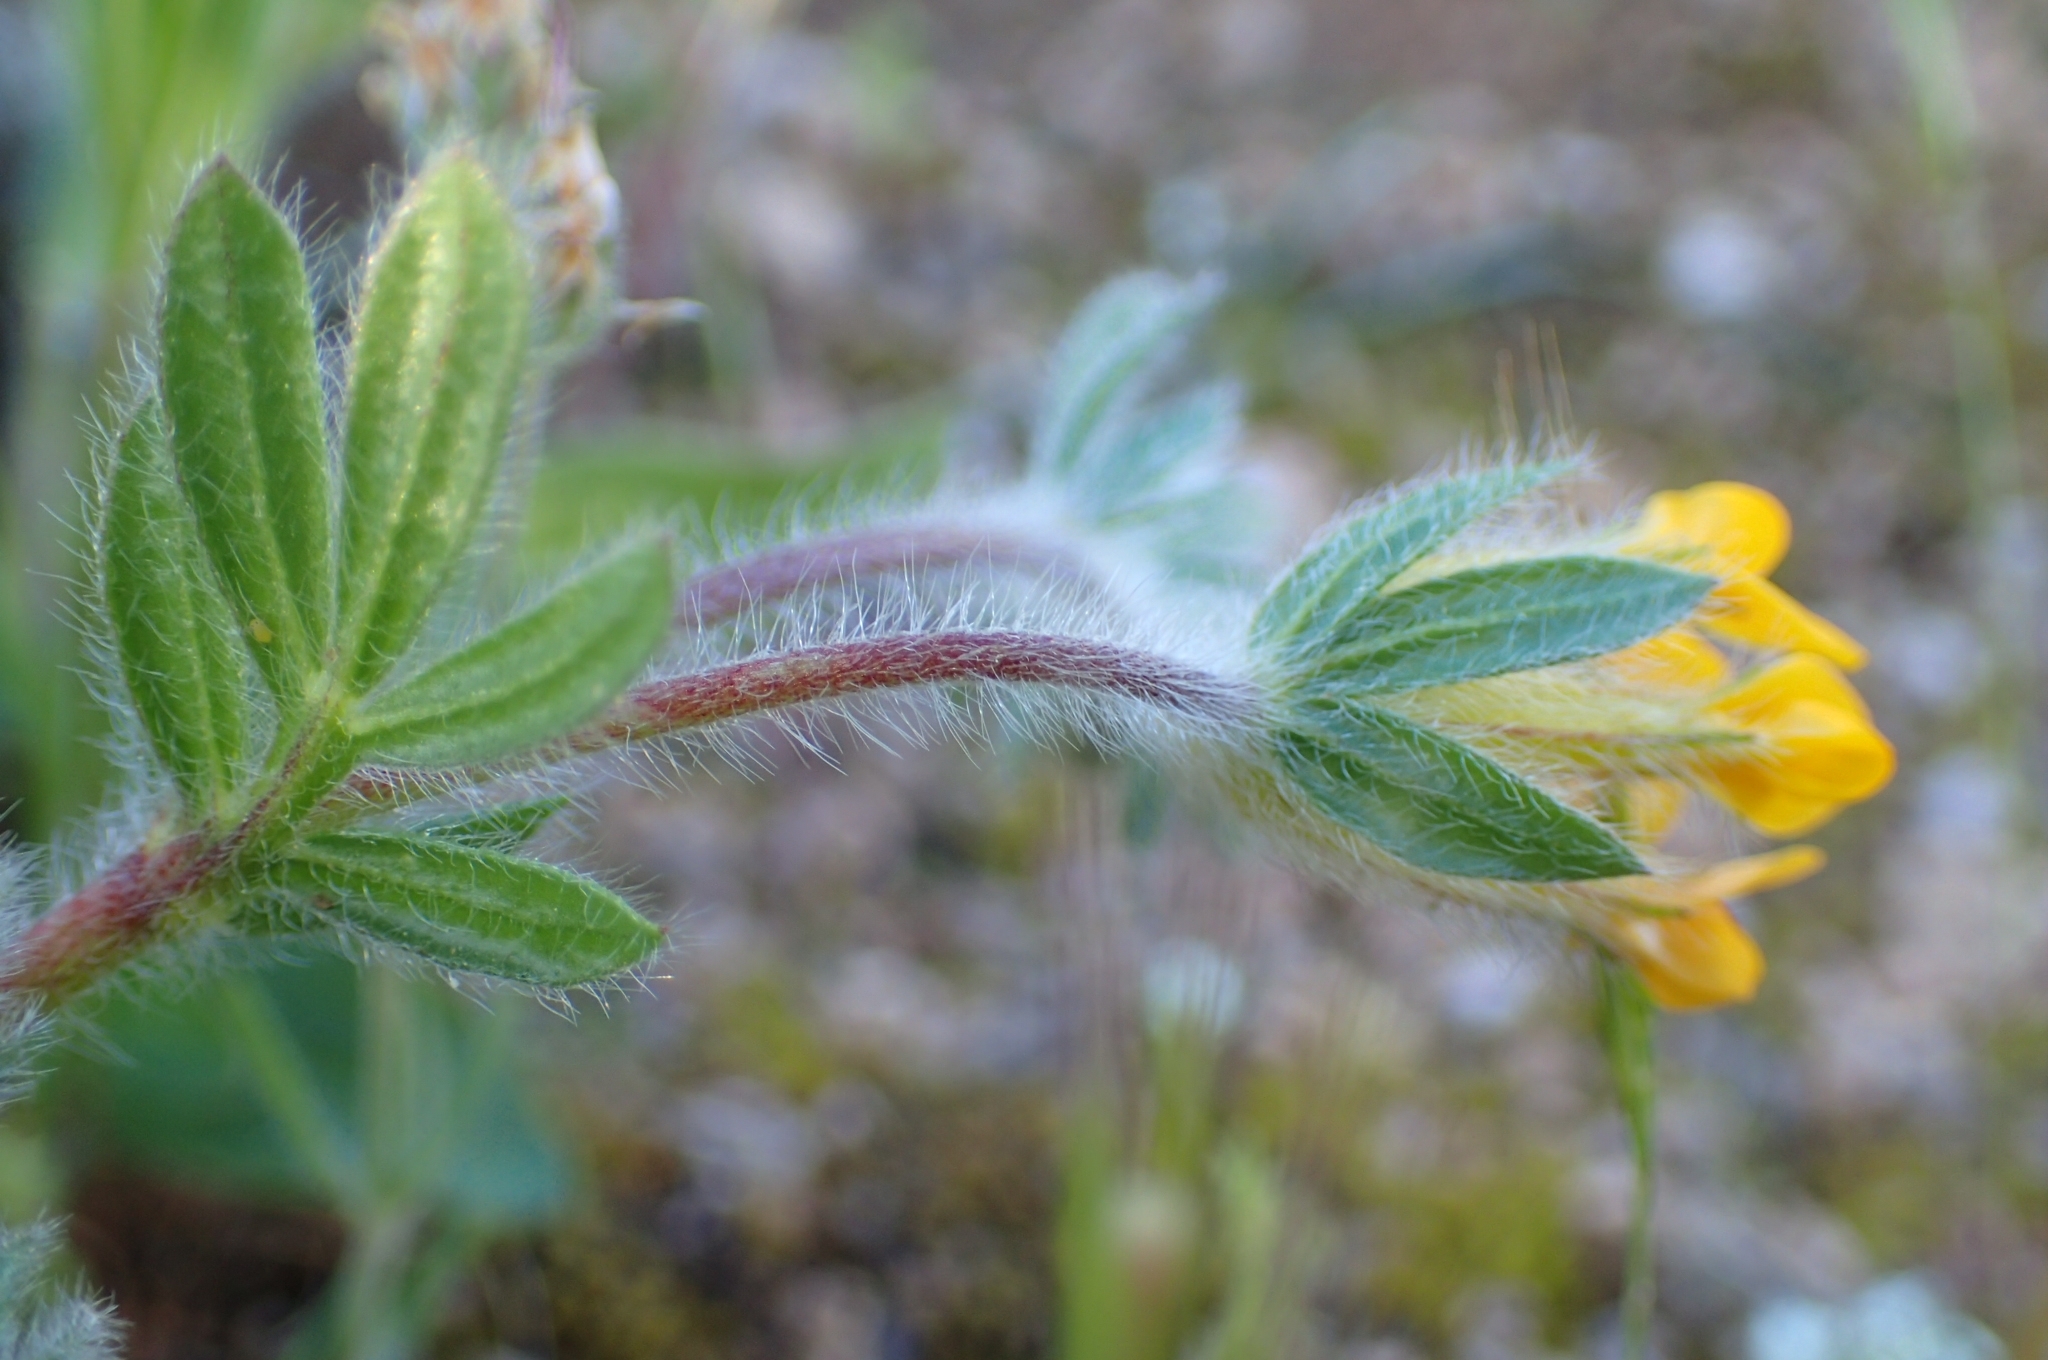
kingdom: Plantae
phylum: Tracheophyta
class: Magnoliopsida
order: Fabales
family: Fabaceae
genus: Anthyllis
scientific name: Anthyllis lotoides
